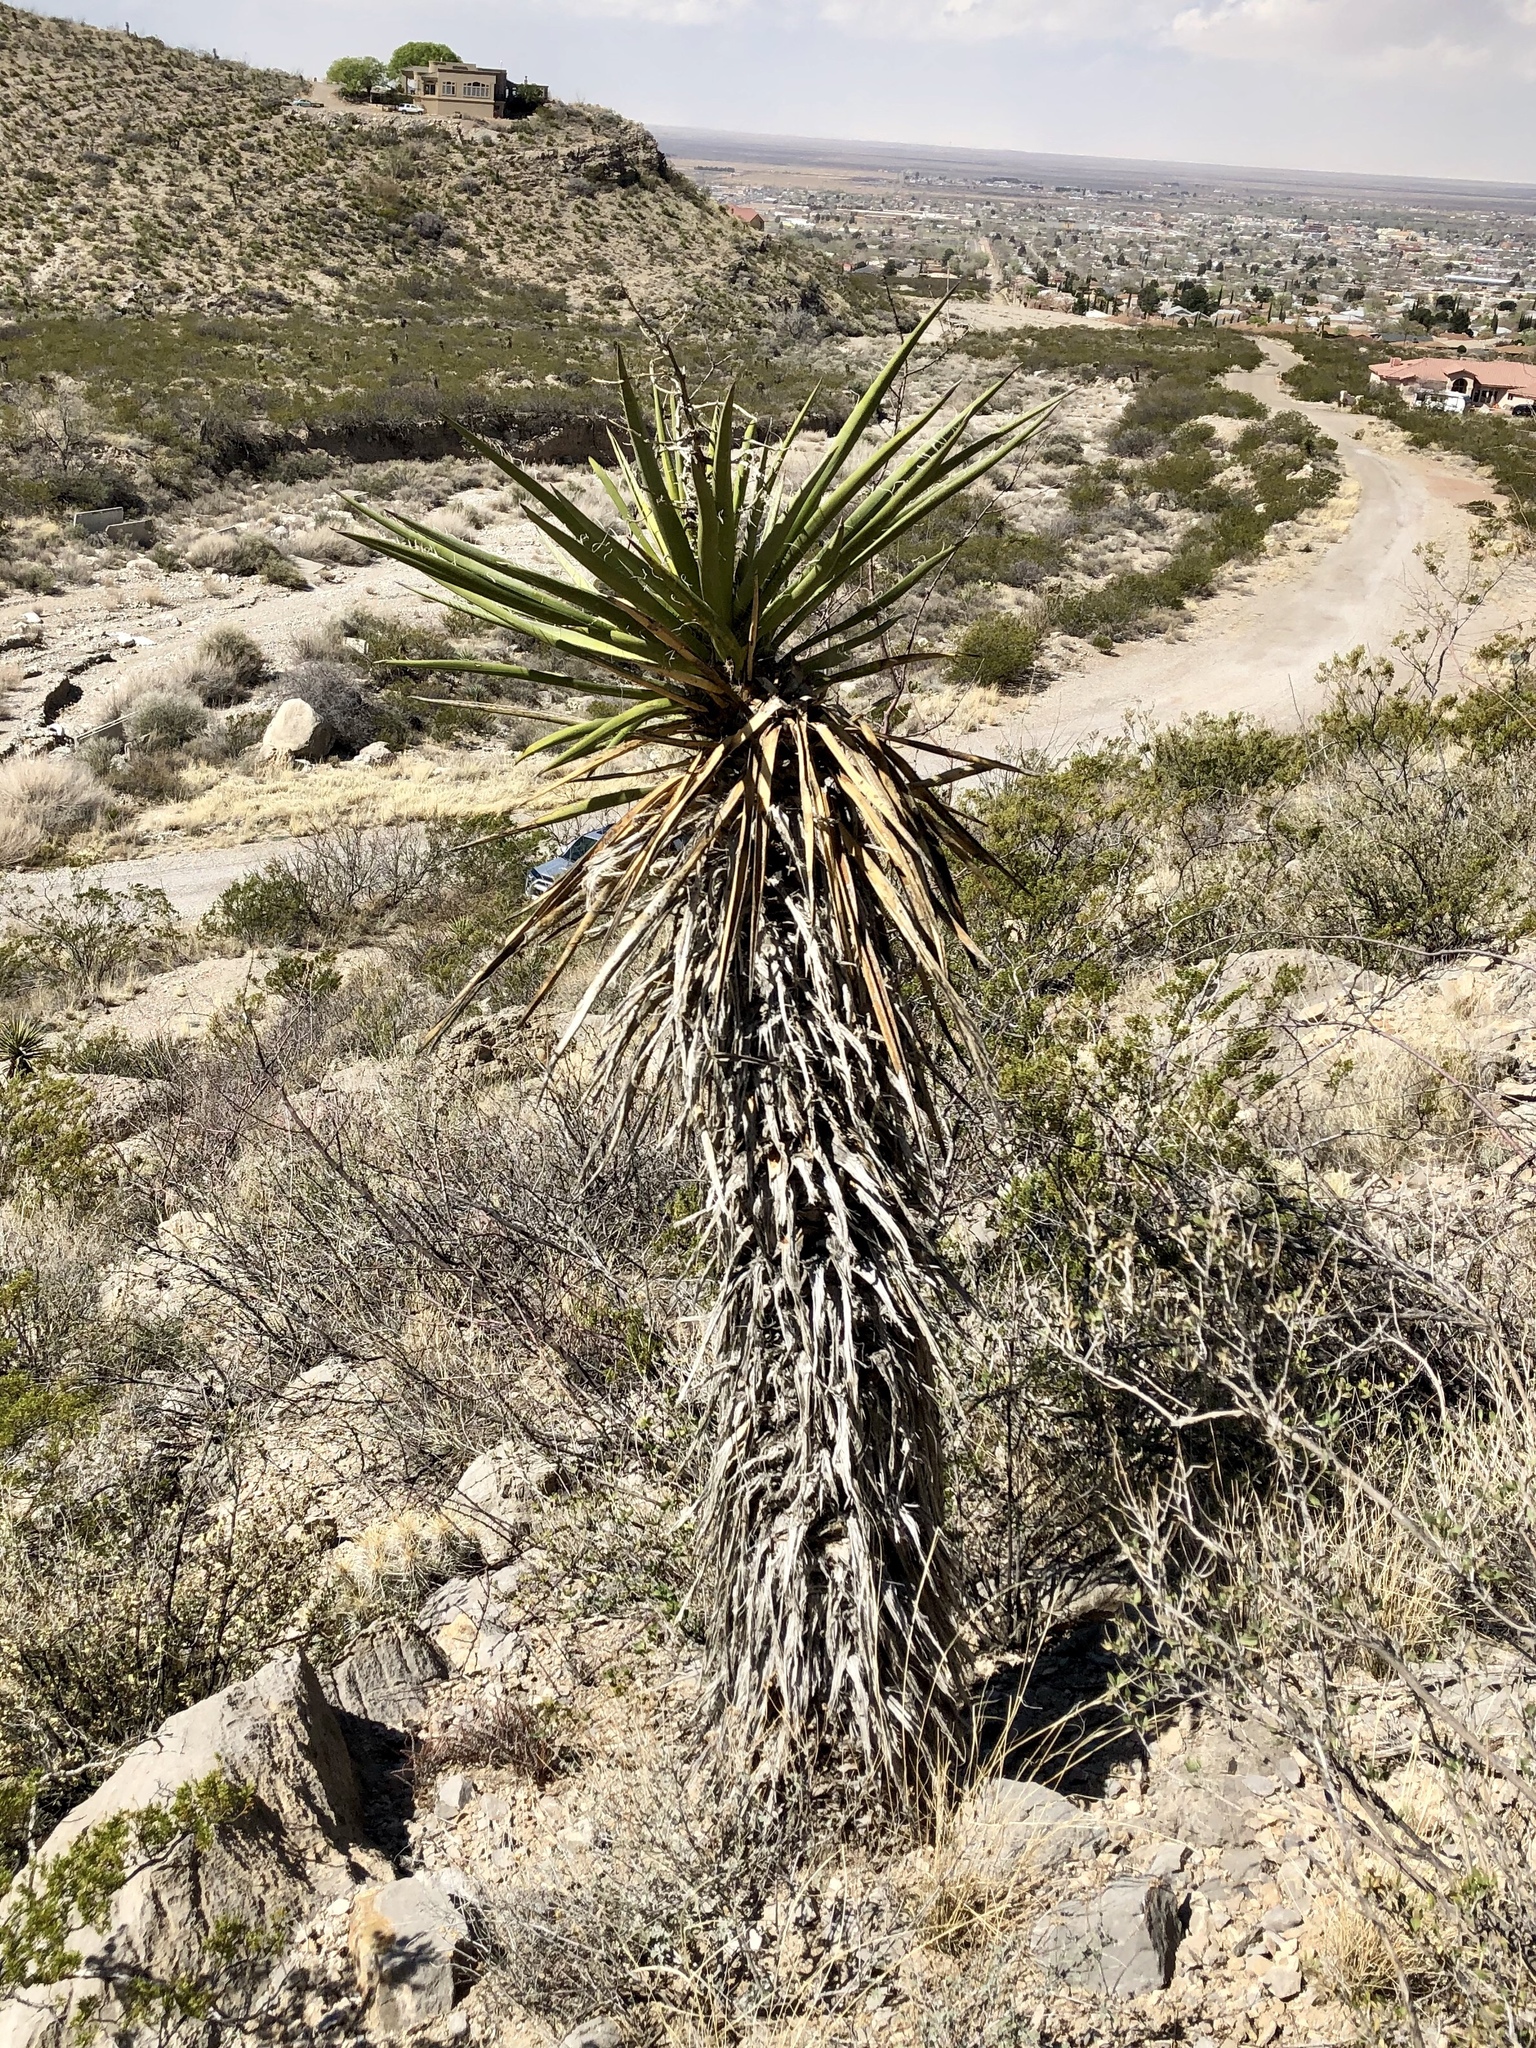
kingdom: Plantae
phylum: Tracheophyta
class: Liliopsida
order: Asparagales
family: Asparagaceae
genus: Yucca
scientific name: Yucca treculiana
